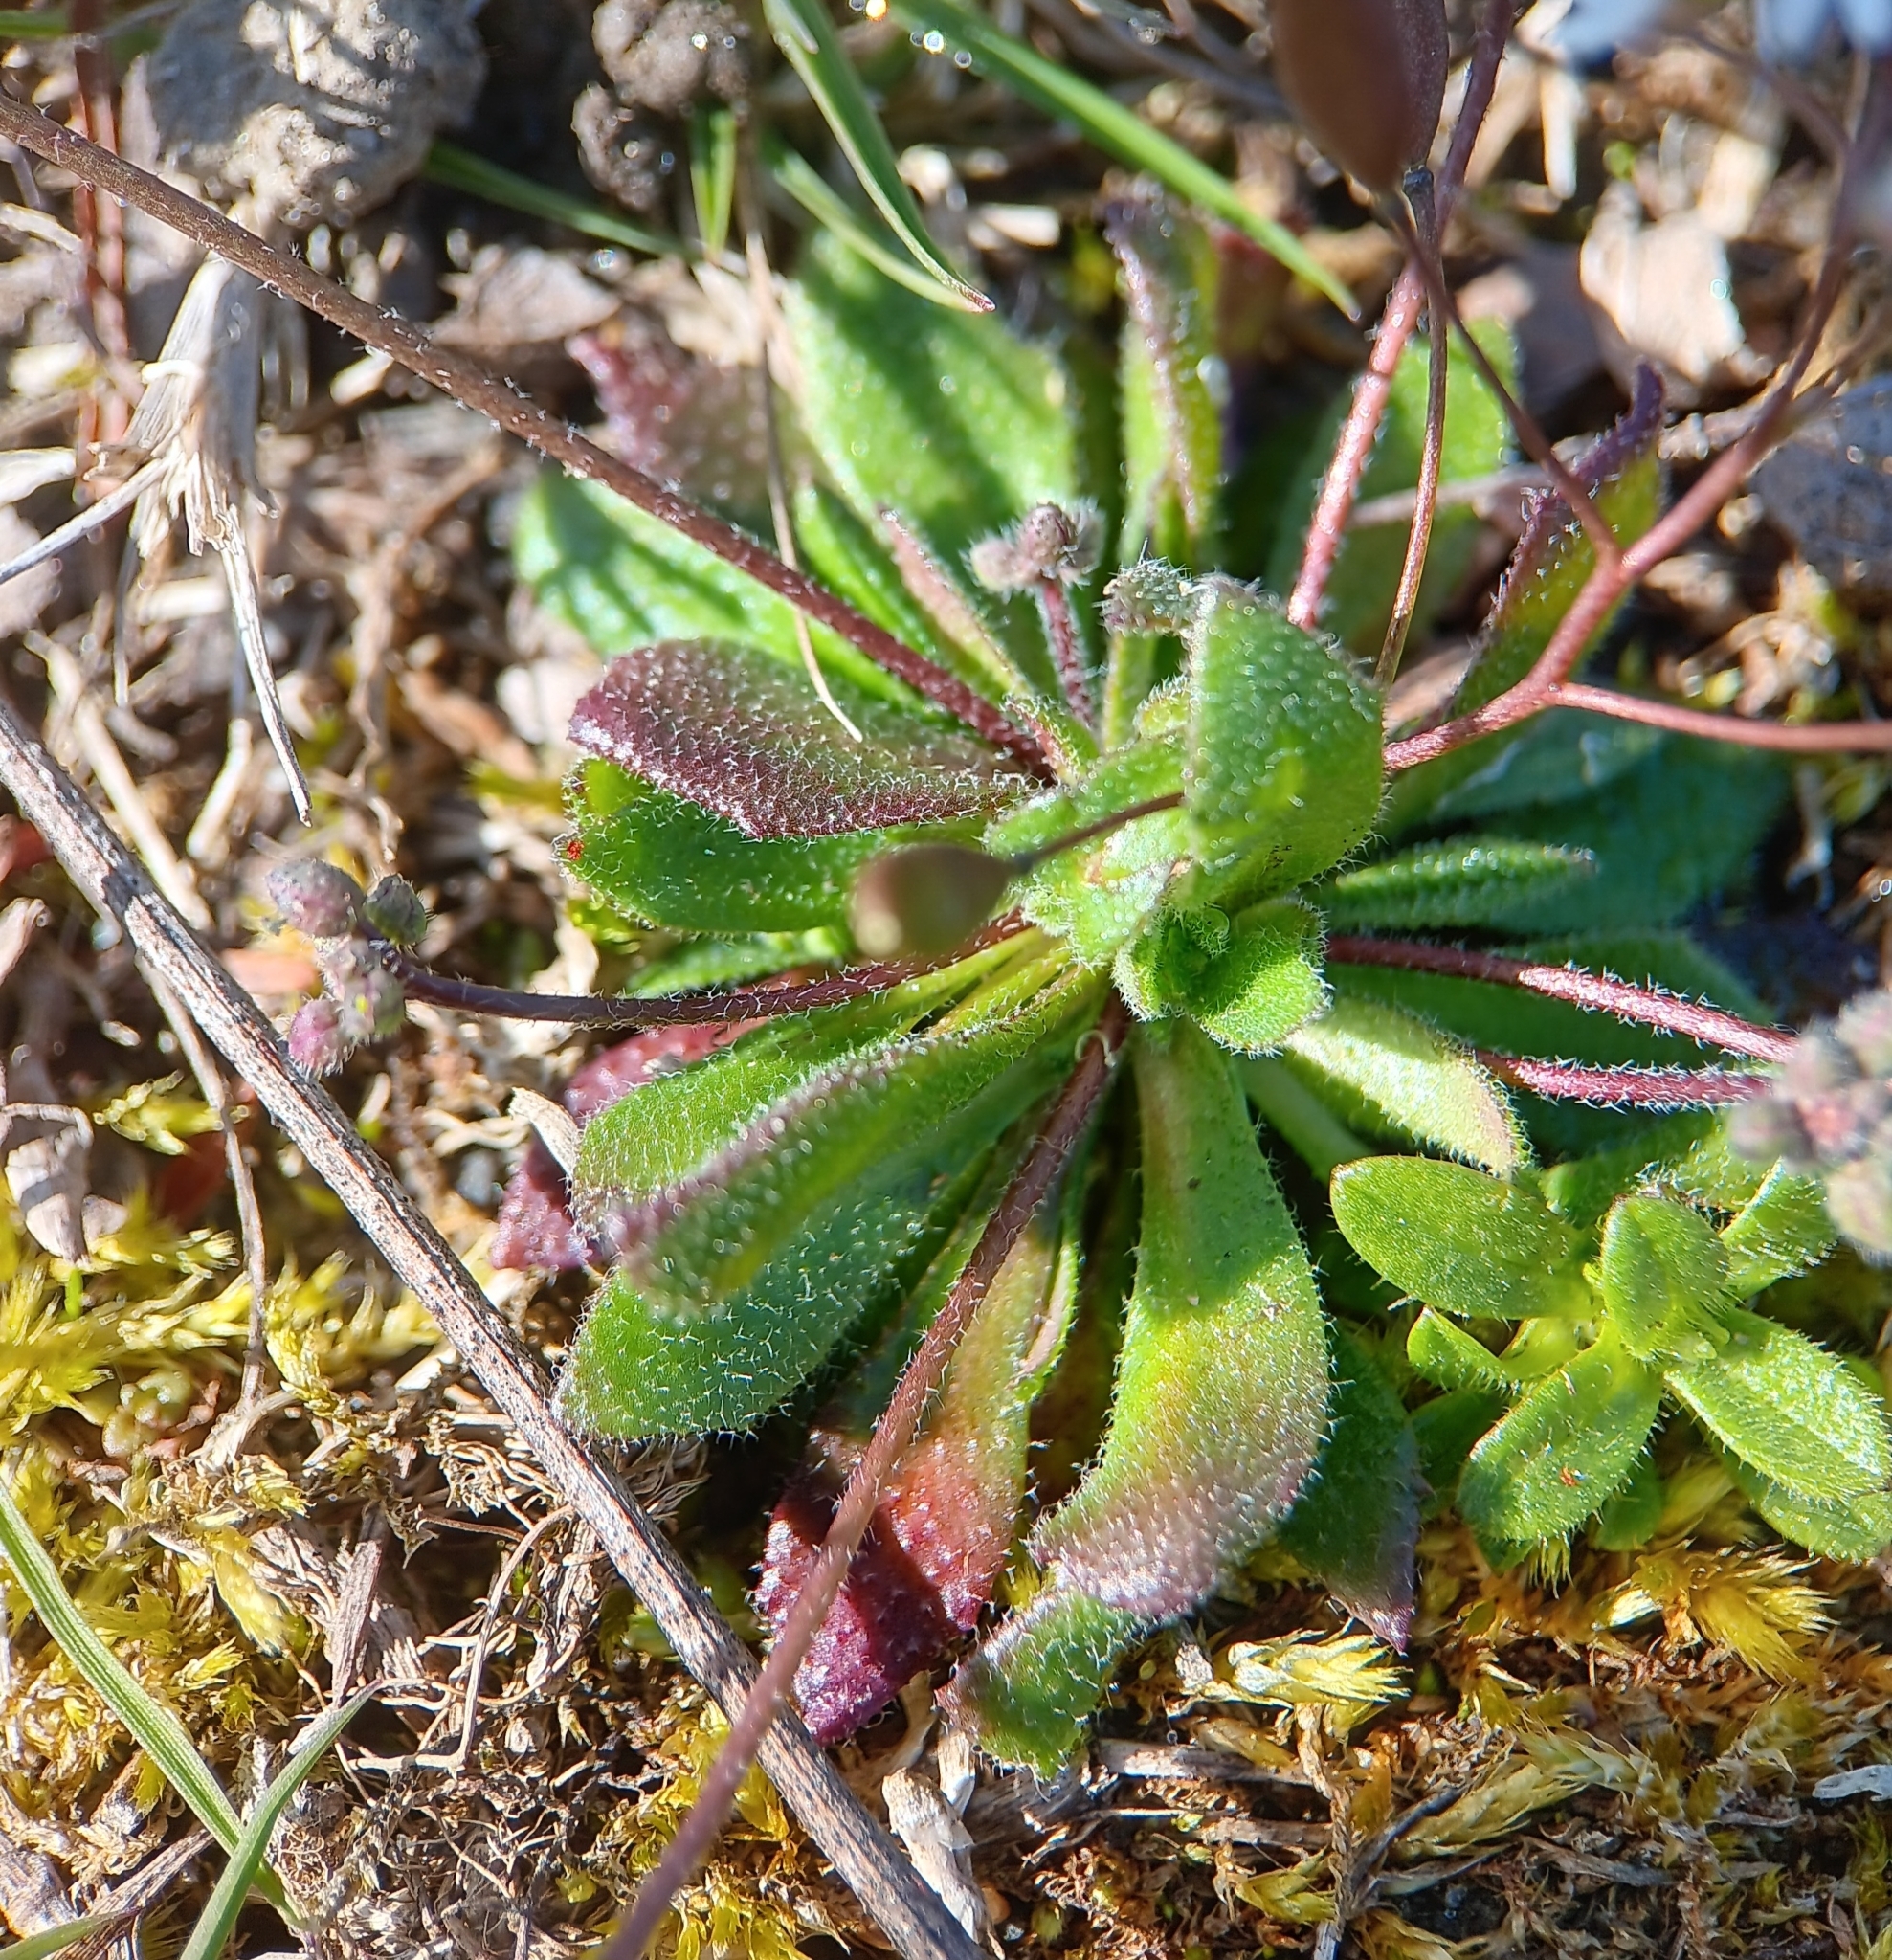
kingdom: Plantae
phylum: Tracheophyta
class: Magnoliopsida
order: Brassicales
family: Brassicaceae
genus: Draba
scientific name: Draba verna
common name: Spring draba
